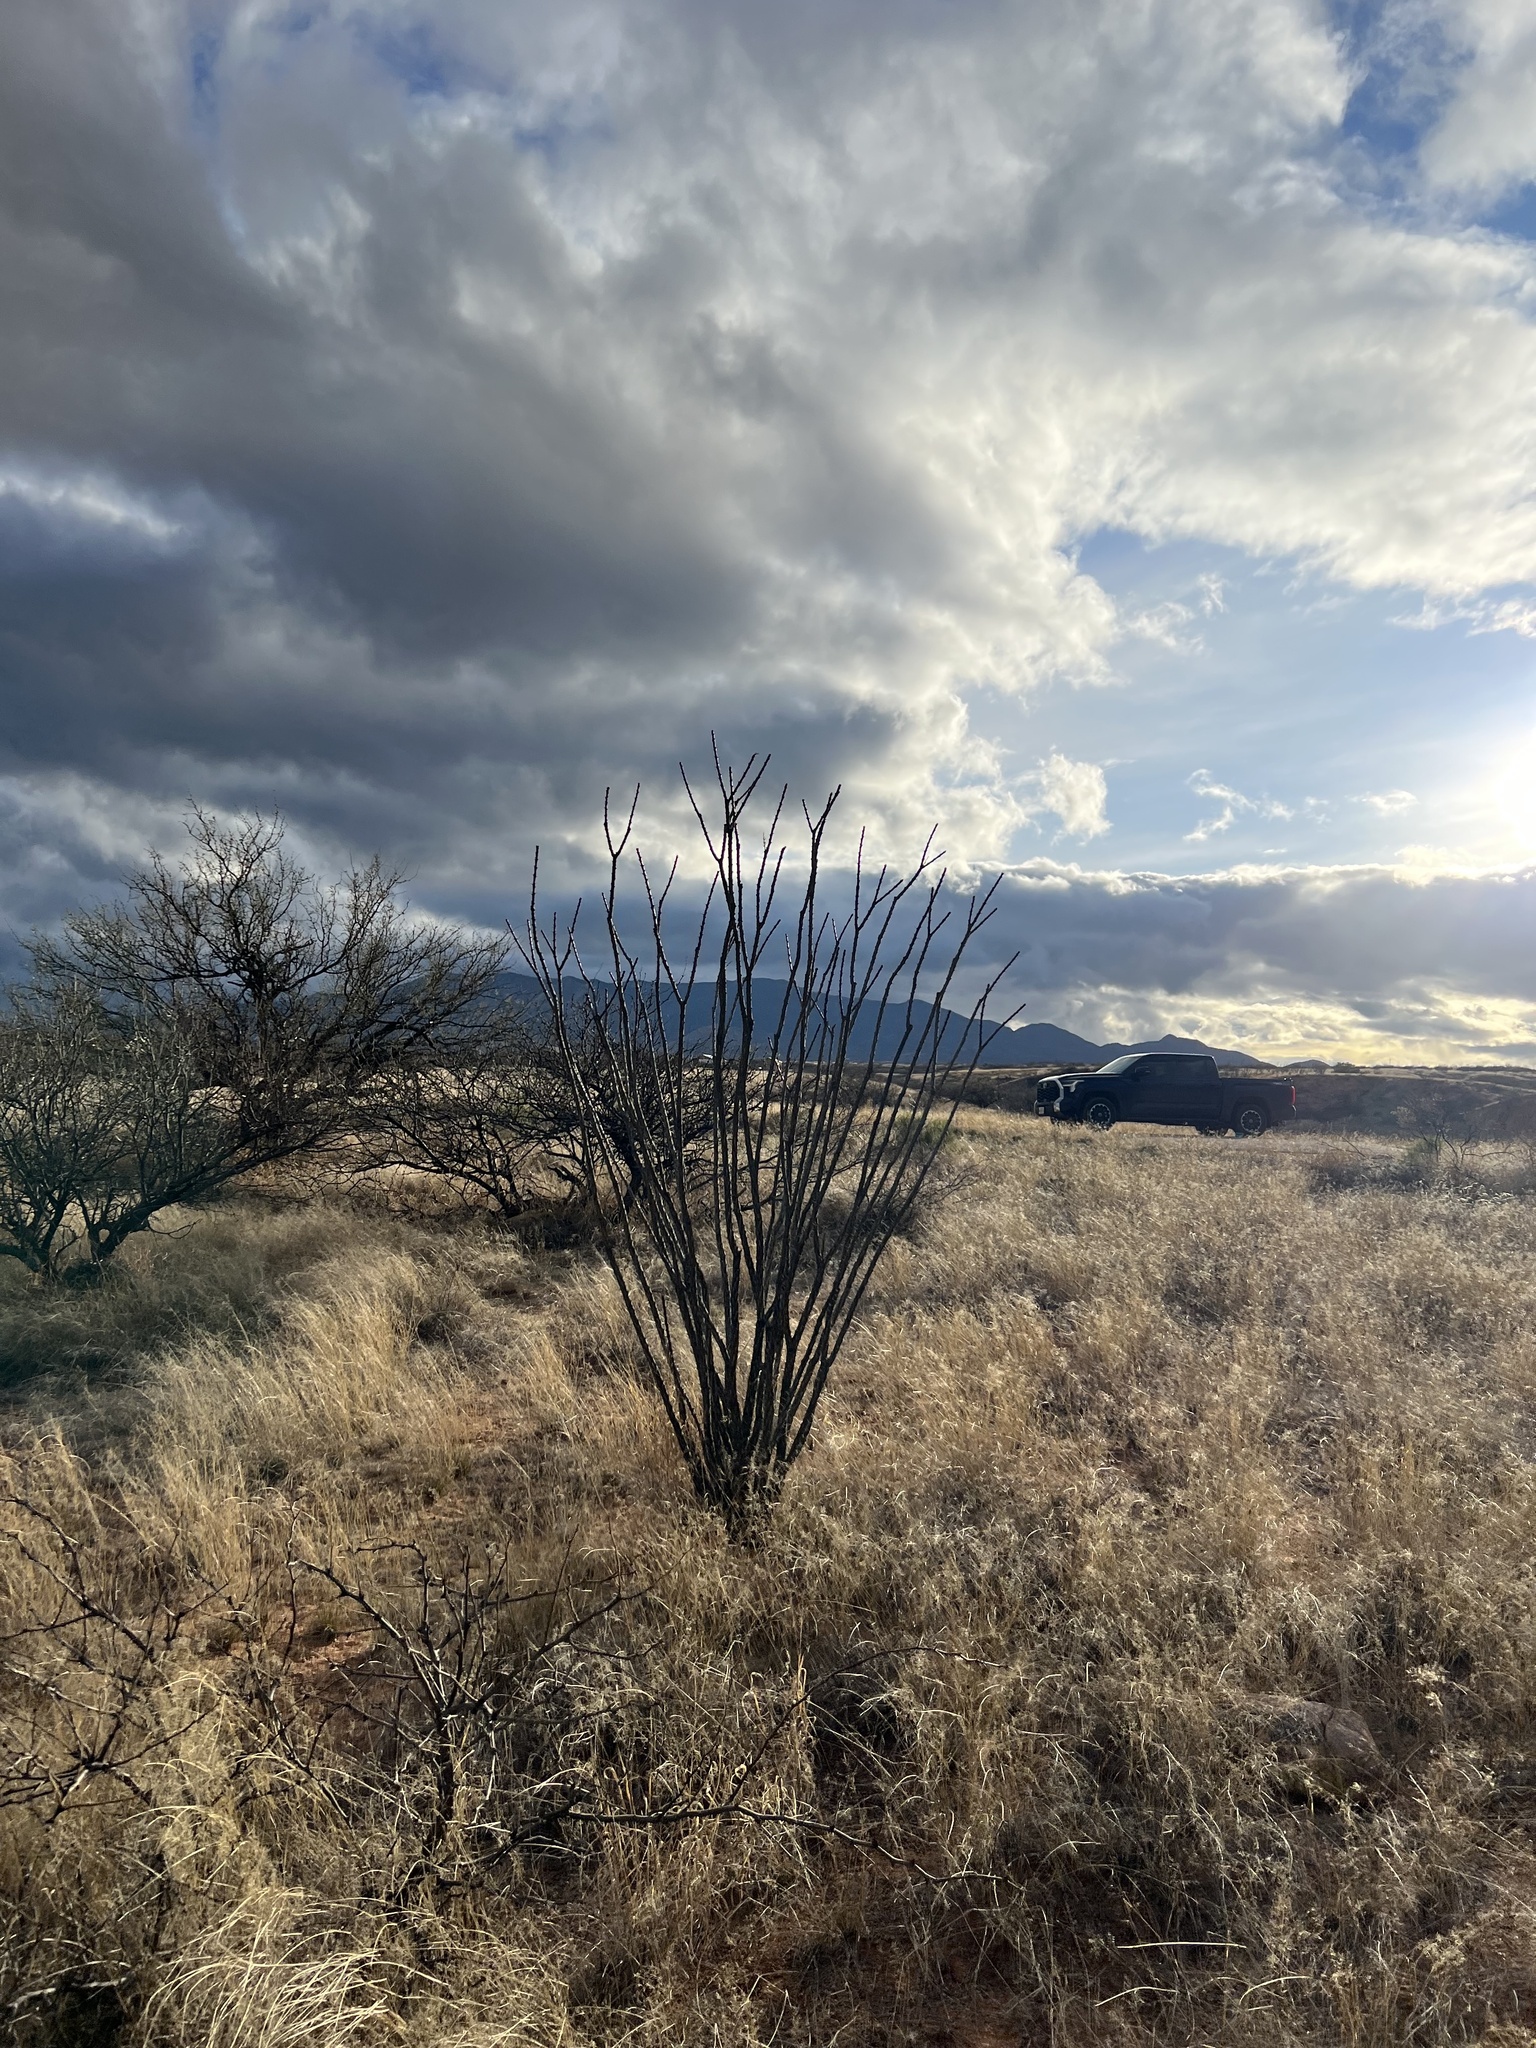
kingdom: Plantae
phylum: Tracheophyta
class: Magnoliopsida
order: Ericales
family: Fouquieriaceae
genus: Fouquieria
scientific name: Fouquieria splendens
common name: Vine-cactus
